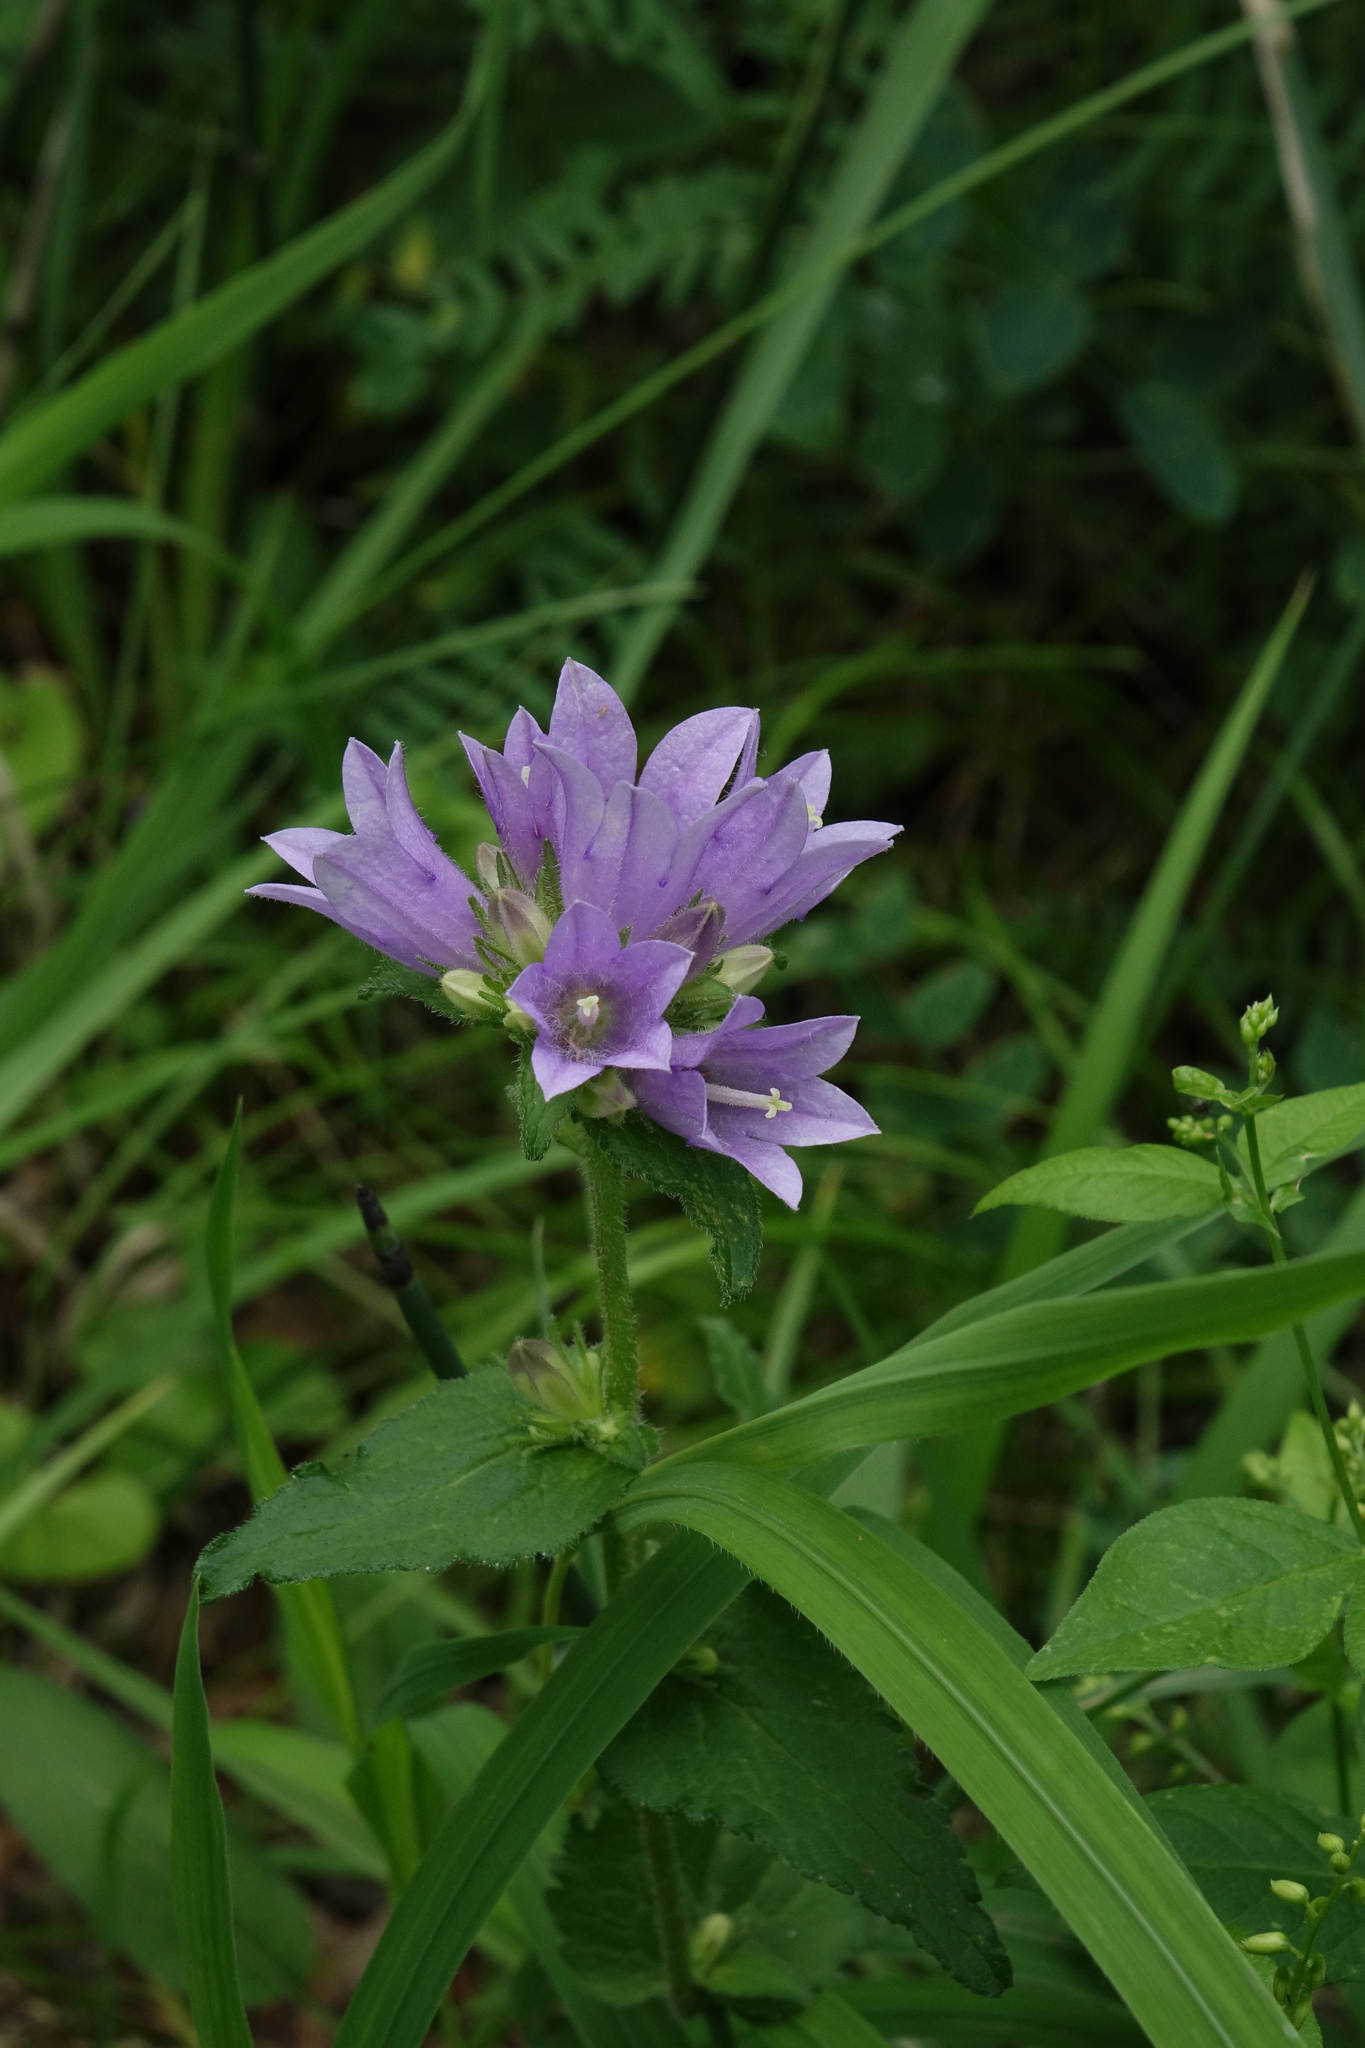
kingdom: Plantae
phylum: Tracheophyta
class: Magnoliopsida
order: Asterales
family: Campanulaceae
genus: Campanula
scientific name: Campanula glomerata
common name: Clustered bellflower
